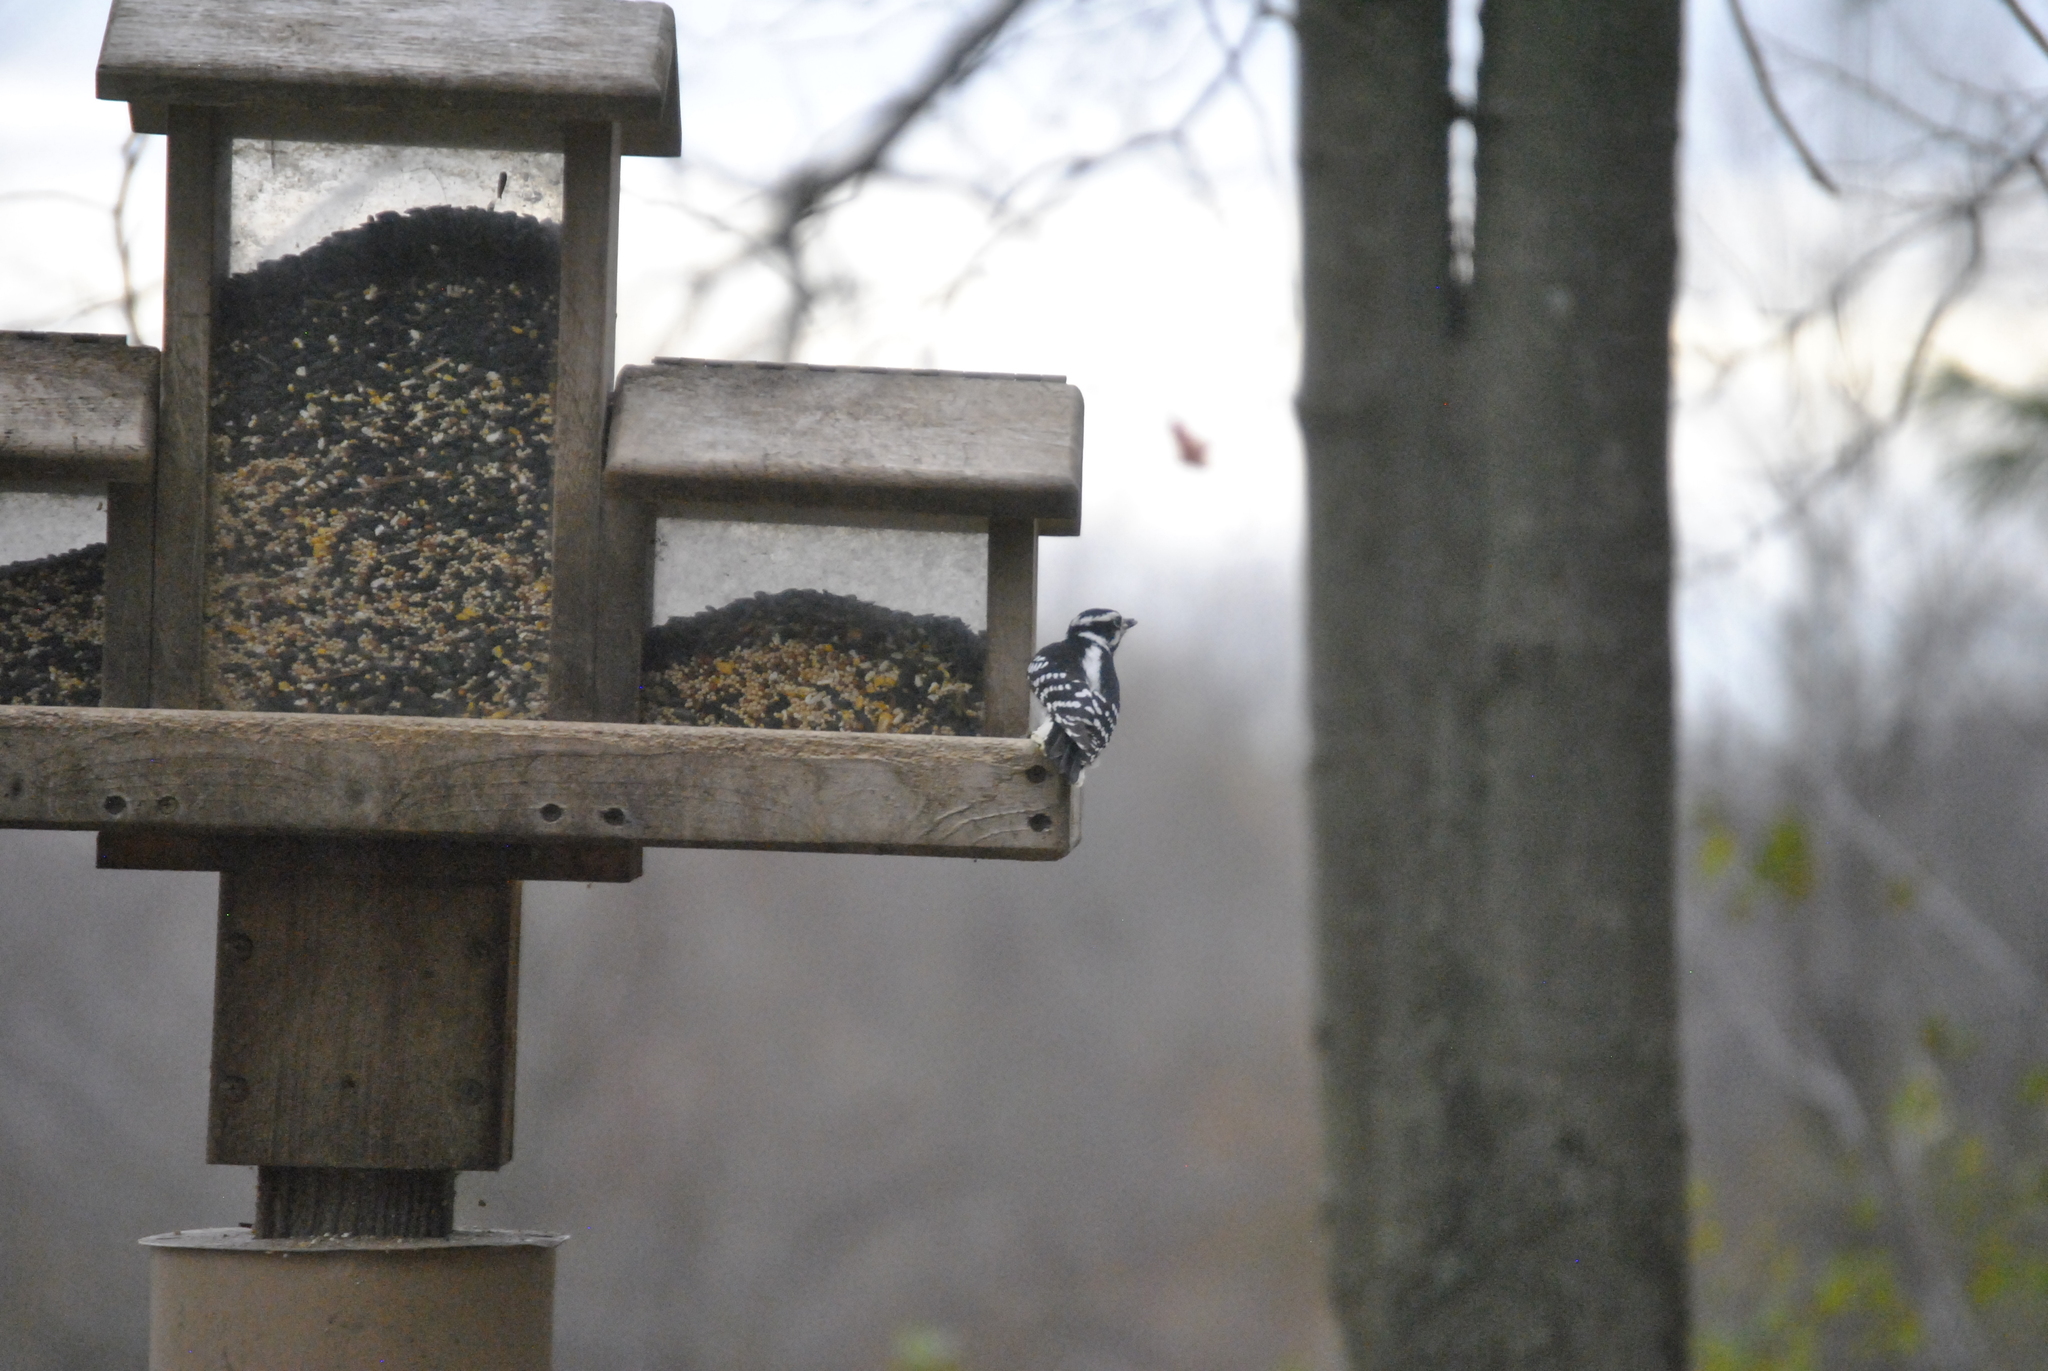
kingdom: Animalia
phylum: Chordata
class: Aves
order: Piciformes
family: Picidae
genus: Dryobates
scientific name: Dryobates pubescens
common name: Downy woodpecker
